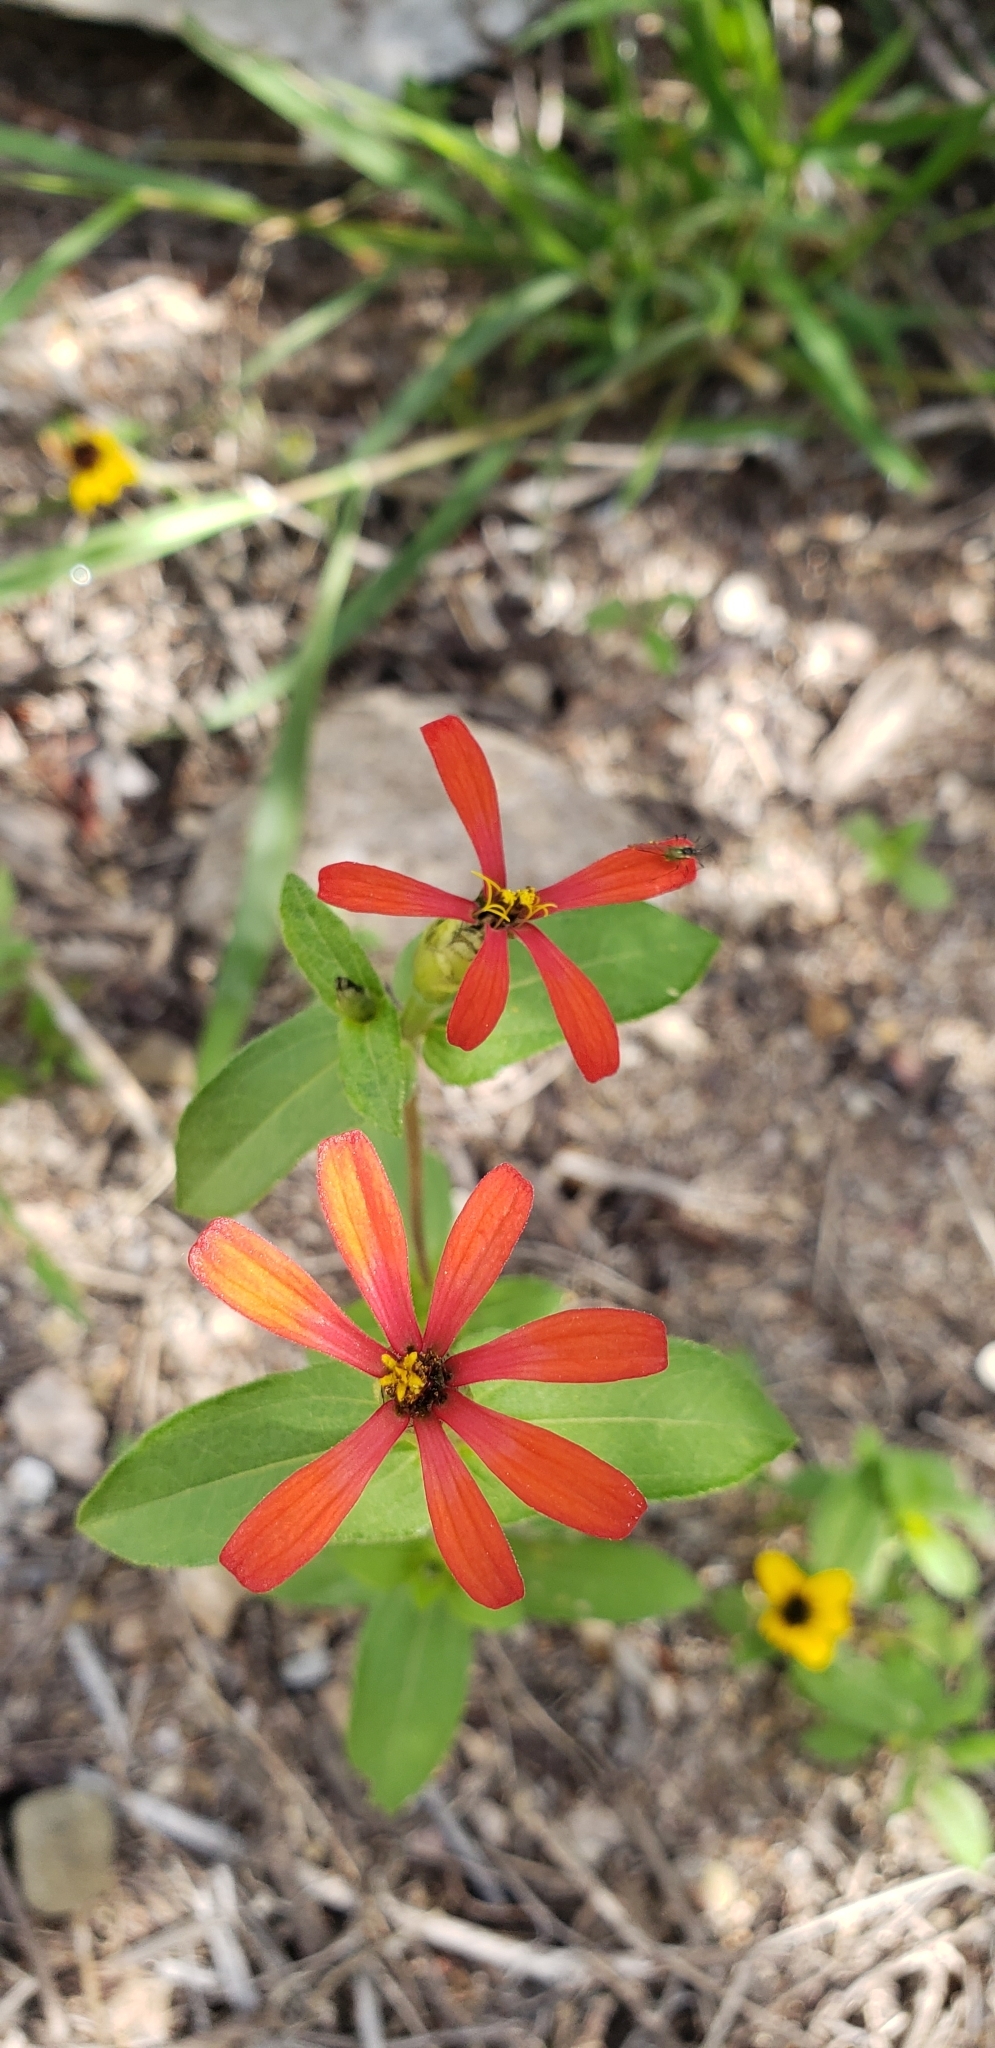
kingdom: Plantae
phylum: Tracheophyta
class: Magnoliopsida
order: Asterales
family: Asteraceae
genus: Zinnia
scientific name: Zinnia peruviana
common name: Peruvian zinnia
